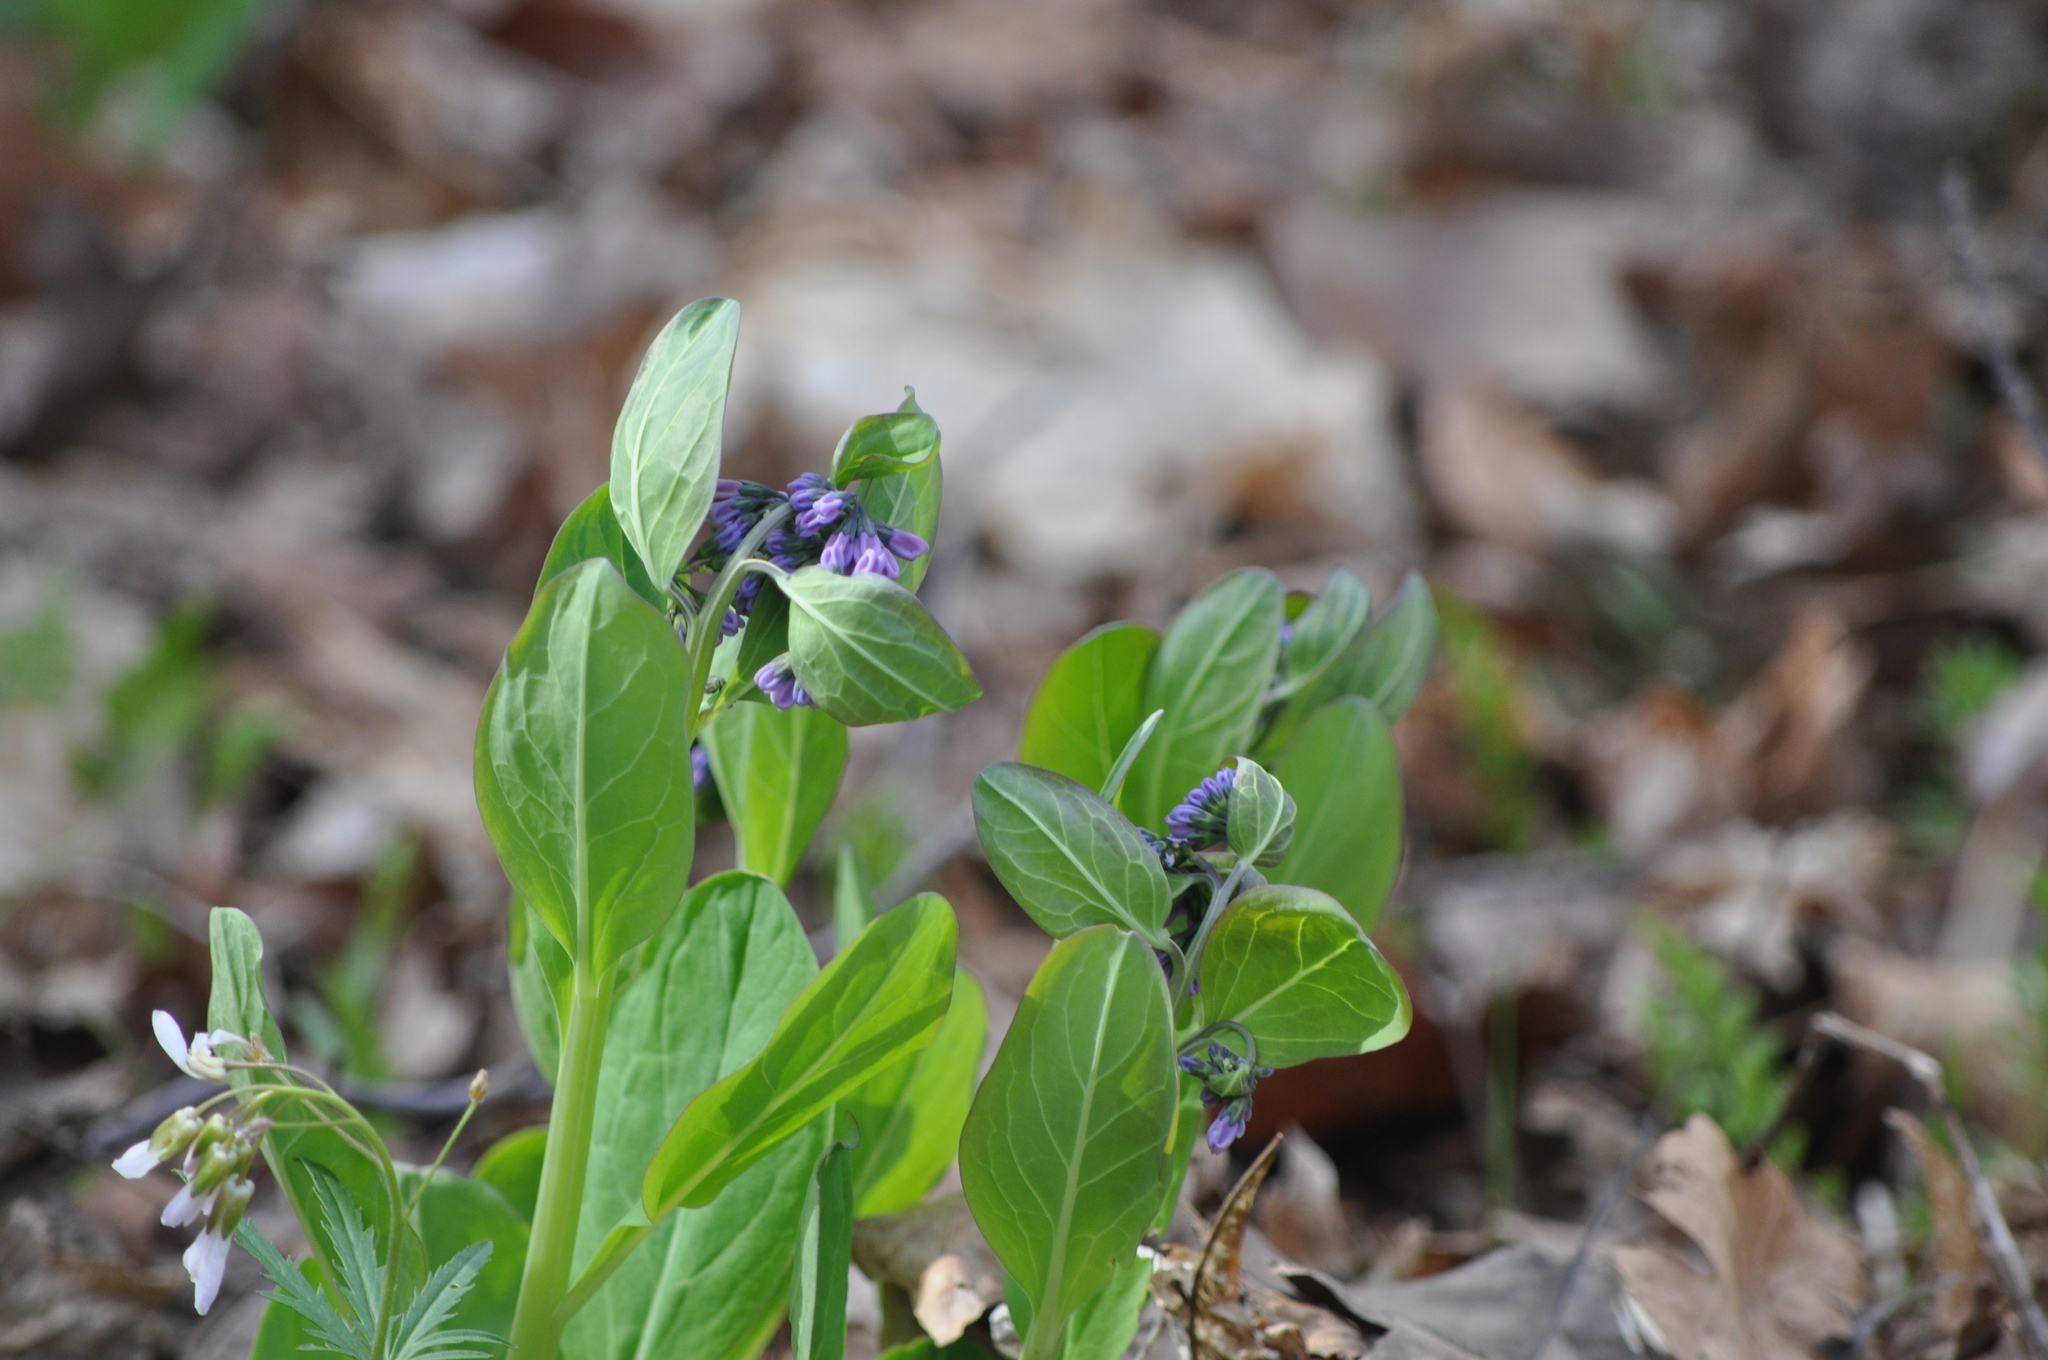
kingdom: Plantae
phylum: Tracheophyta
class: Magnoliopsida
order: Boraginales
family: Boraginaceae
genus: Mertensia
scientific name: Mertensia virginica
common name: Virginia bluebells
